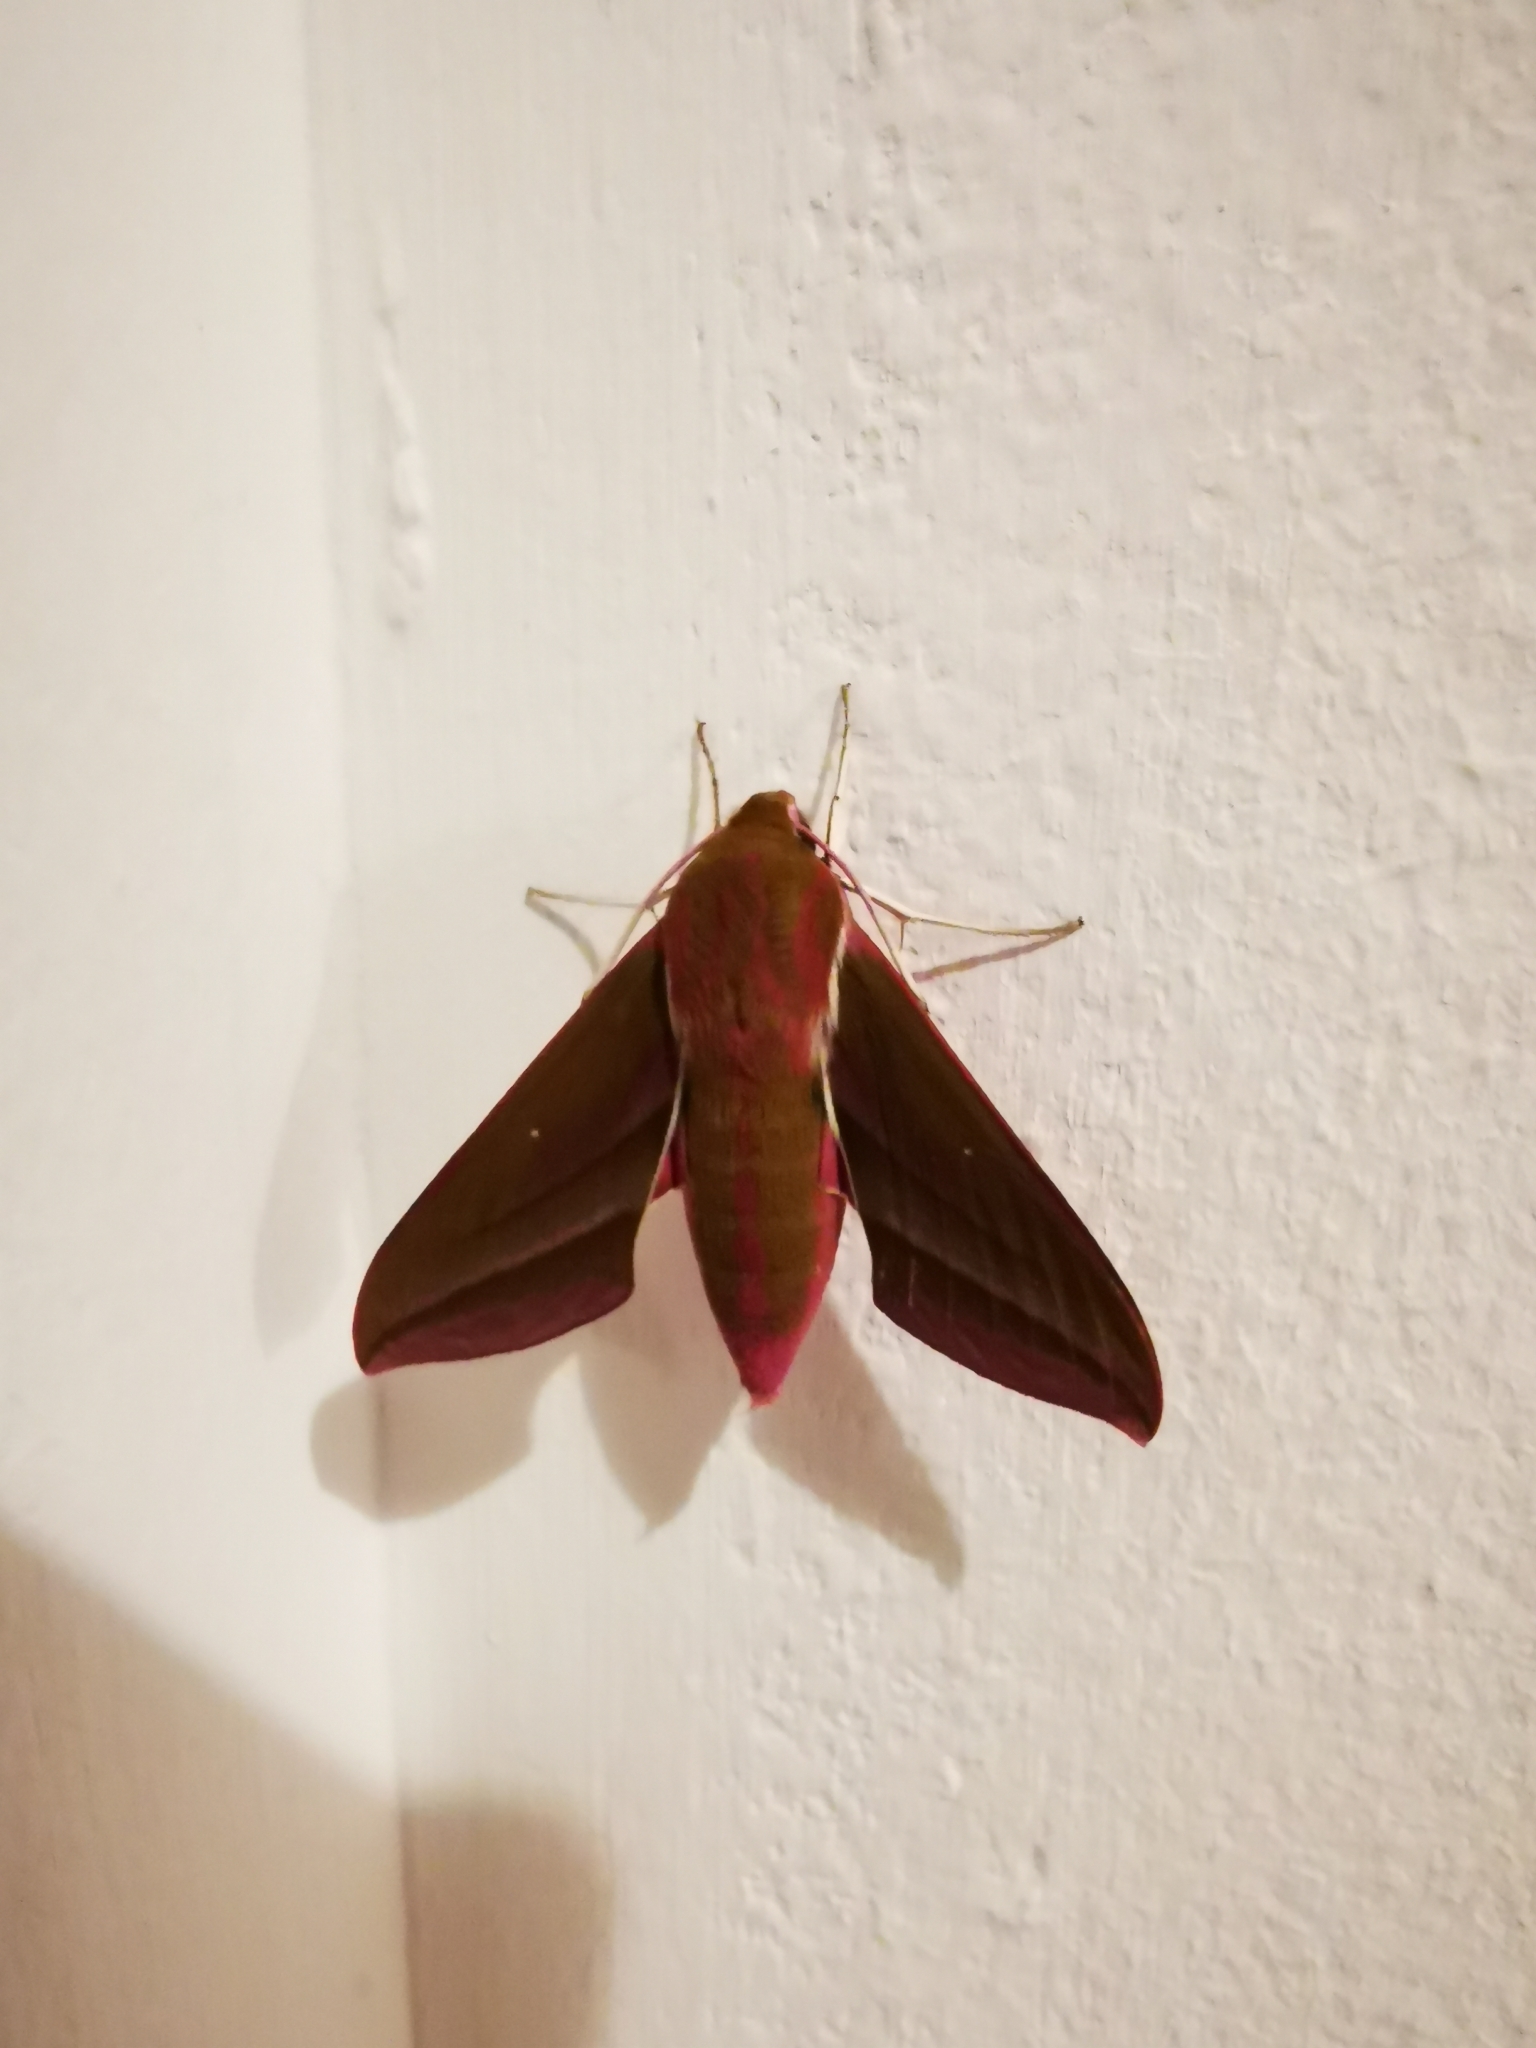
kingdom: Animalia
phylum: Arthropoda
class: Insecta
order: Lepidoptera
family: Sphingidae
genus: Deilephila
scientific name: Deilephila elpenor
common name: Elephant hawk-moth
